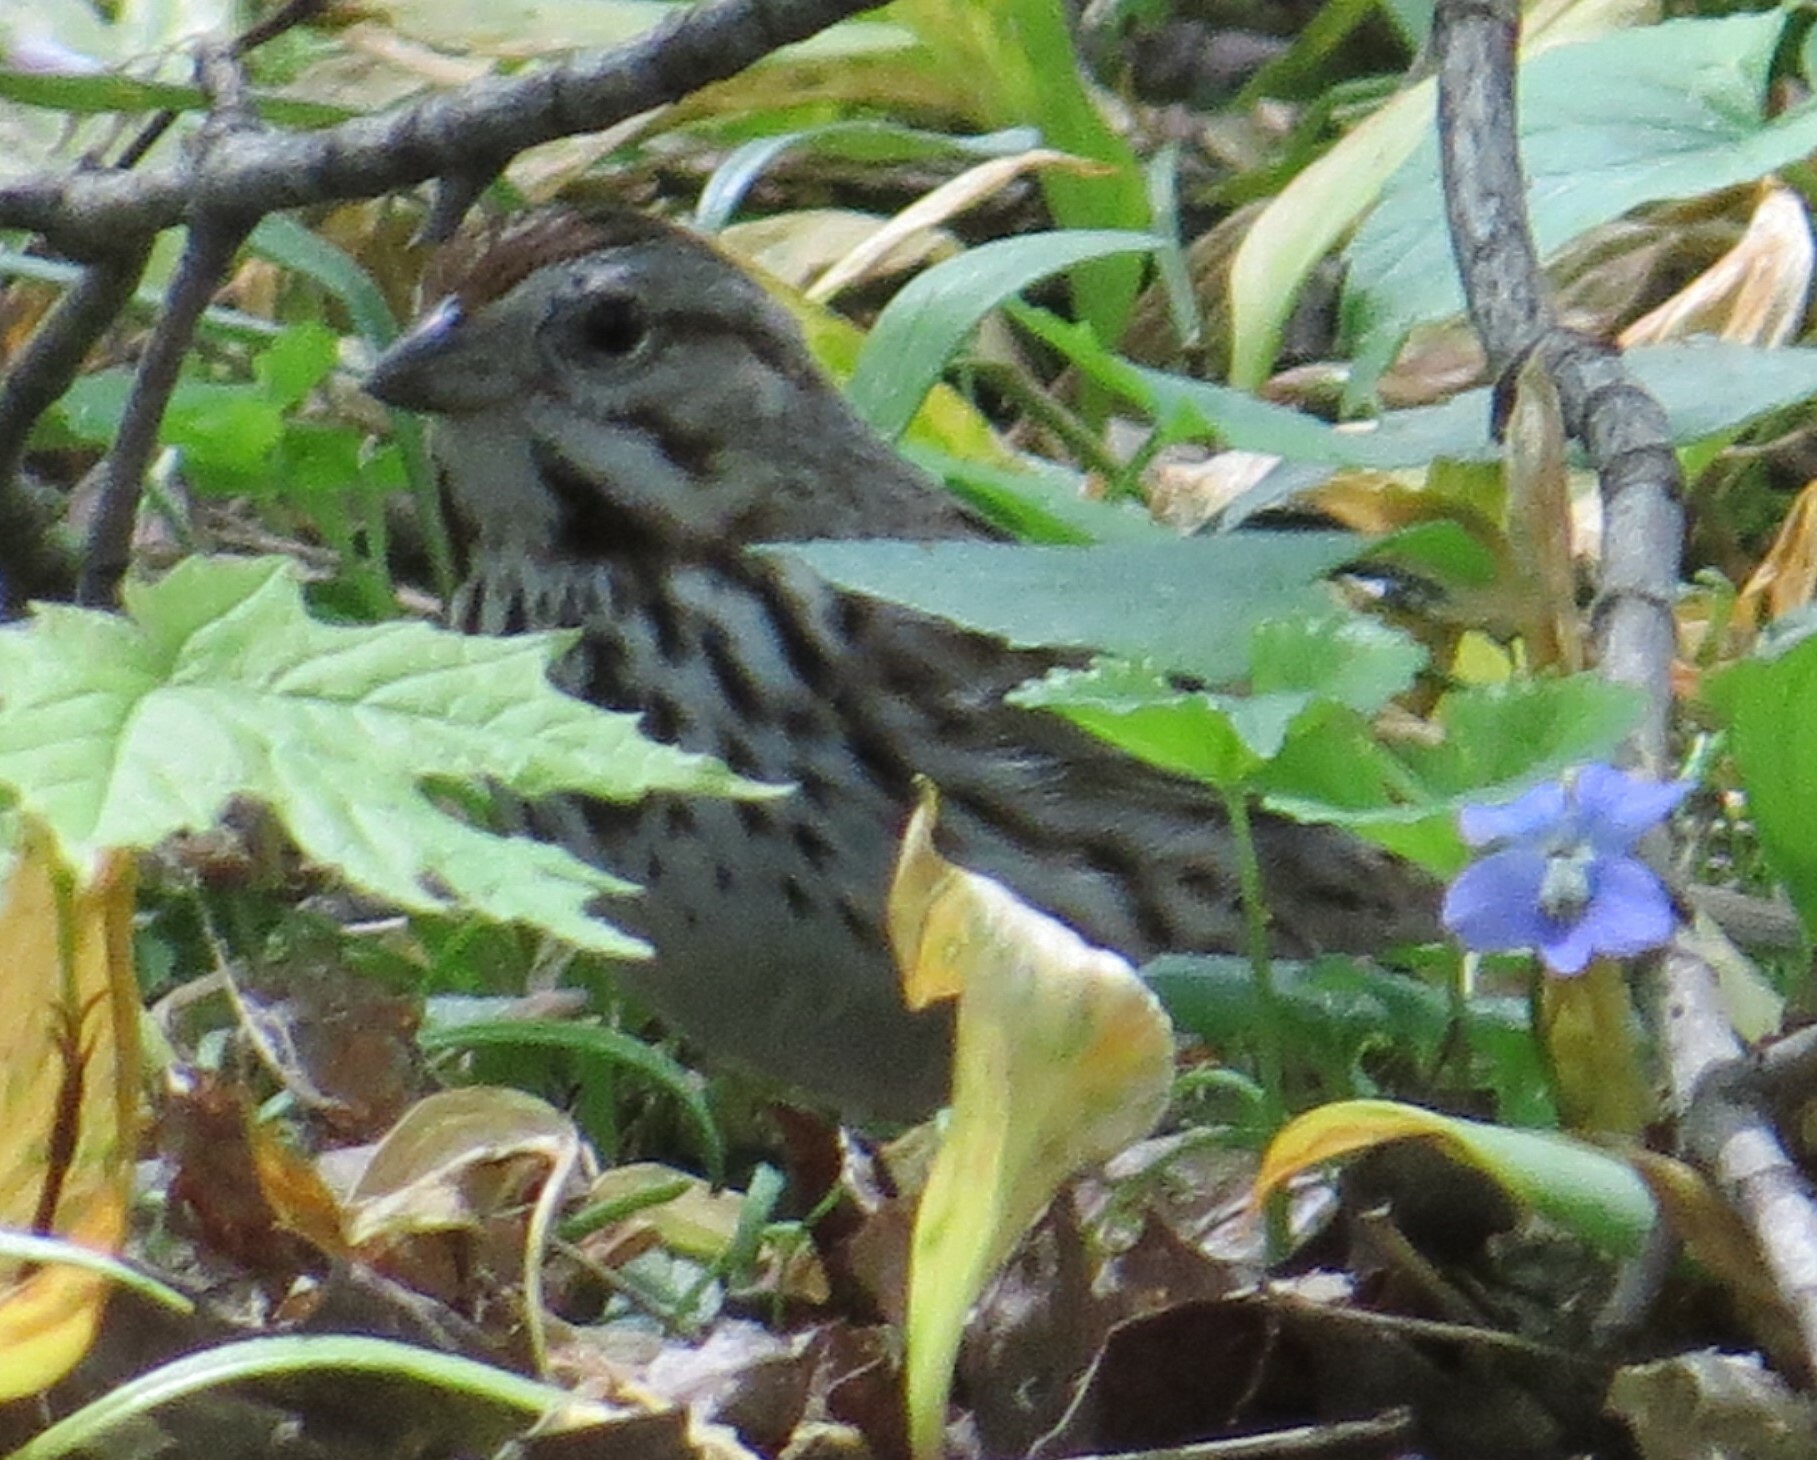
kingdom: Animalia
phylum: Chordata
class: Aves
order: Passeriformes
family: Passerellidae
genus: Melospiza
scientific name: Melospiza melodia
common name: Song sparrow
